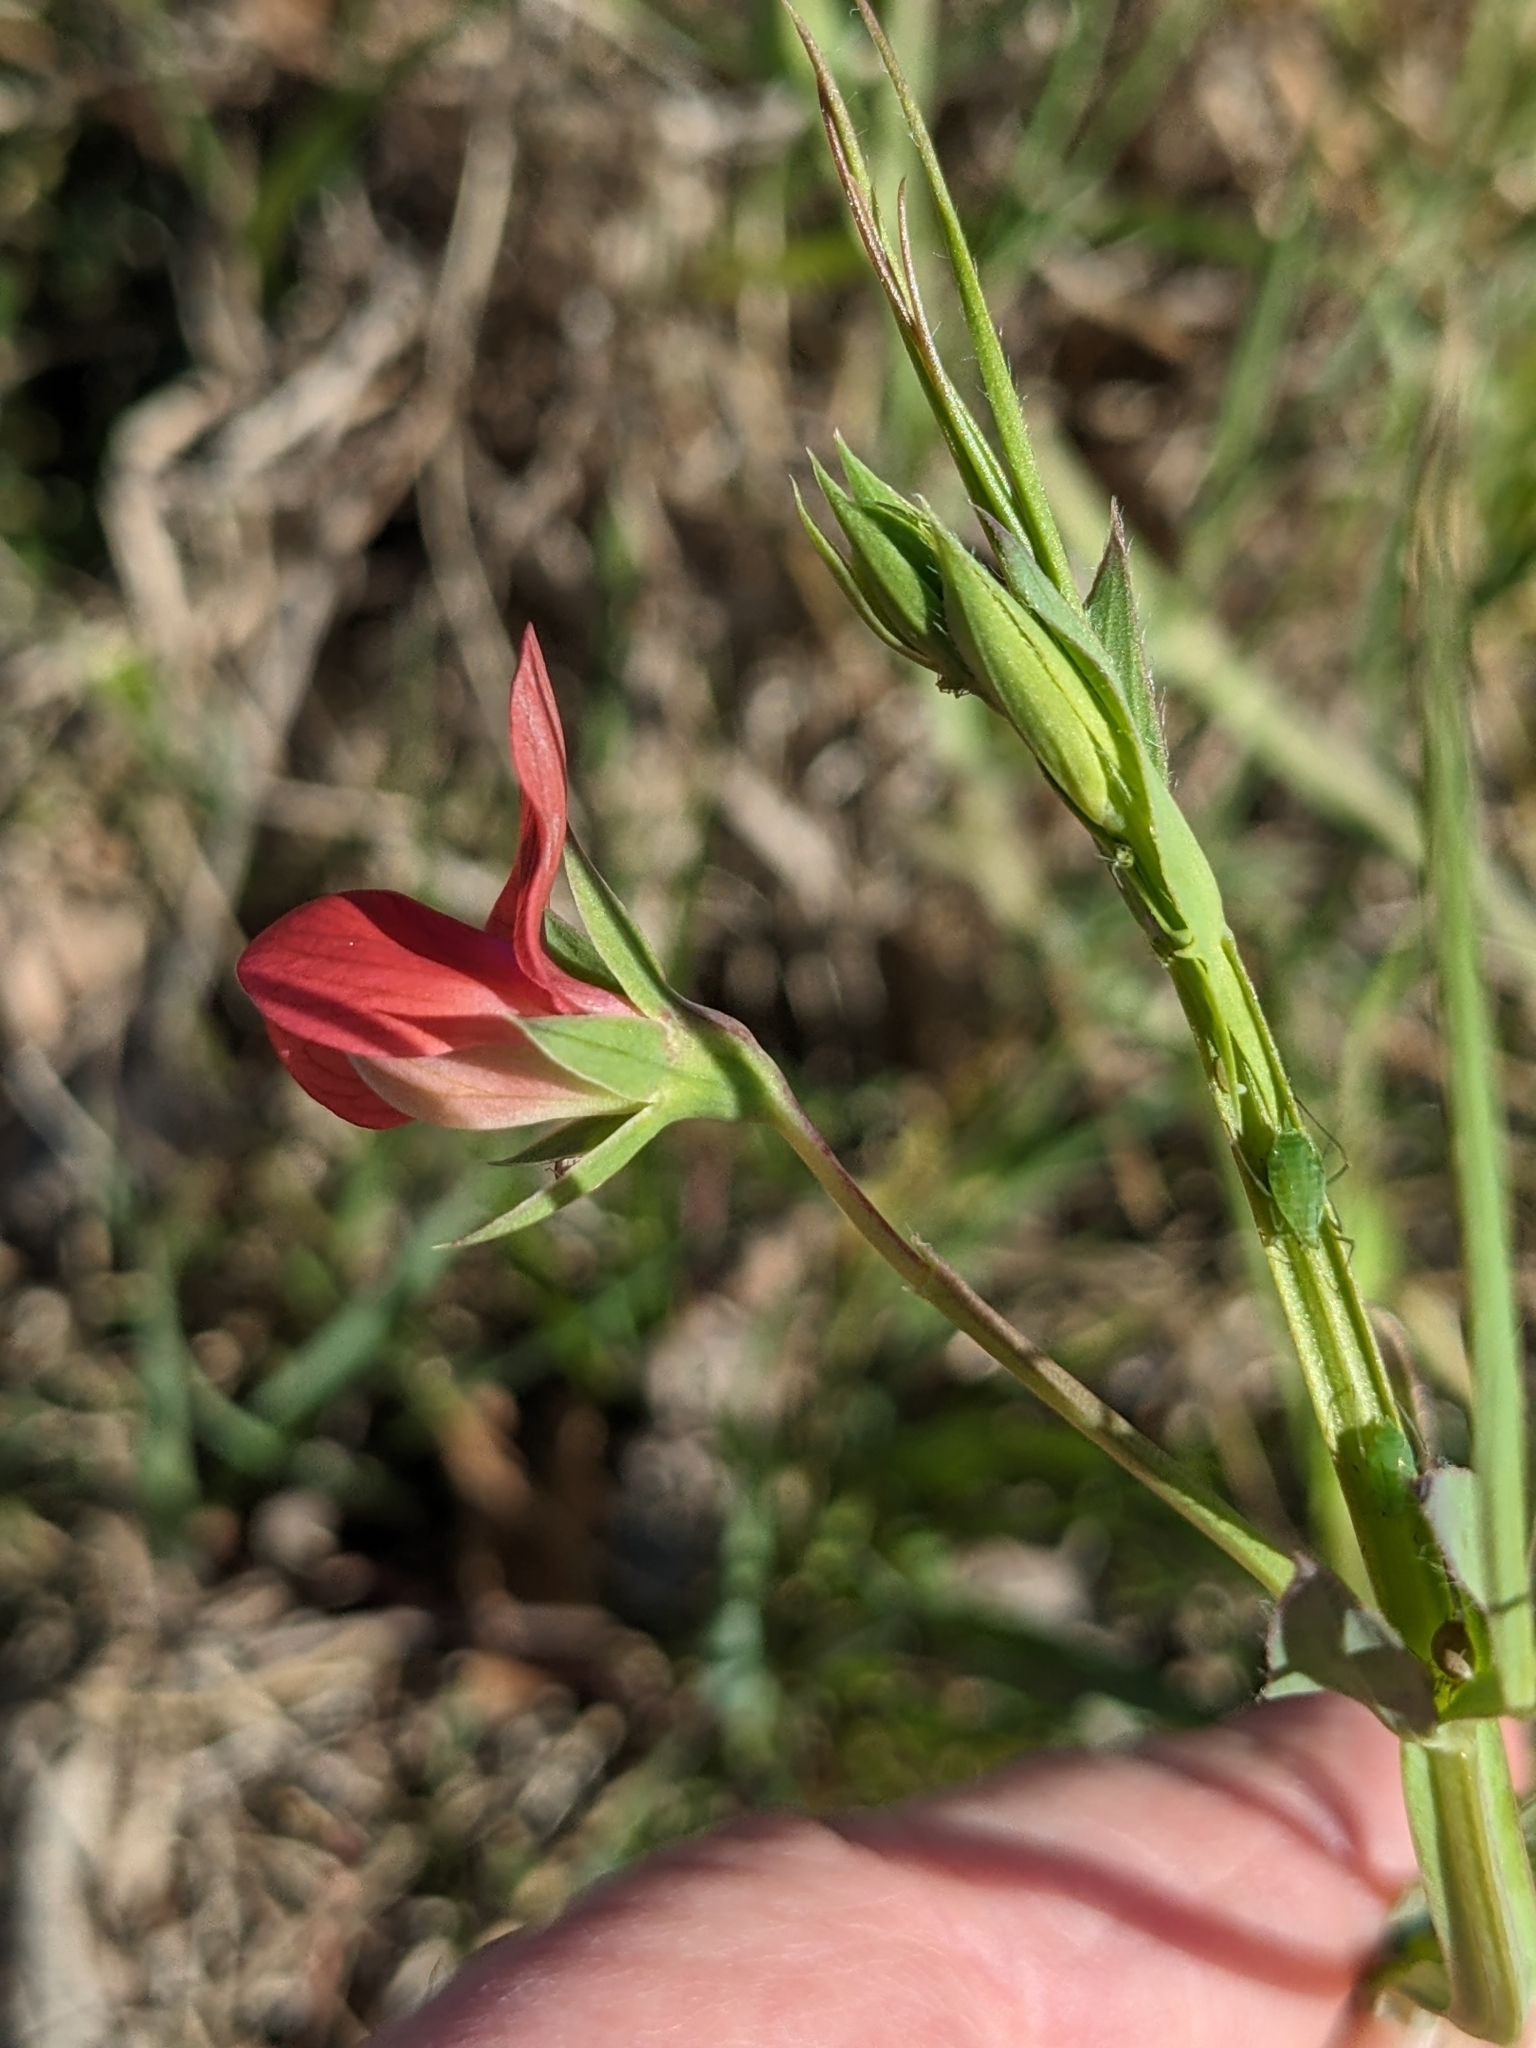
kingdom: Plantae
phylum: Tracheophyta
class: Magnoliopsida
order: Fabales
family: Fabaceae
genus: Lathyrus
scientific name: Lathyrus cicera
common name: Red vetchling
